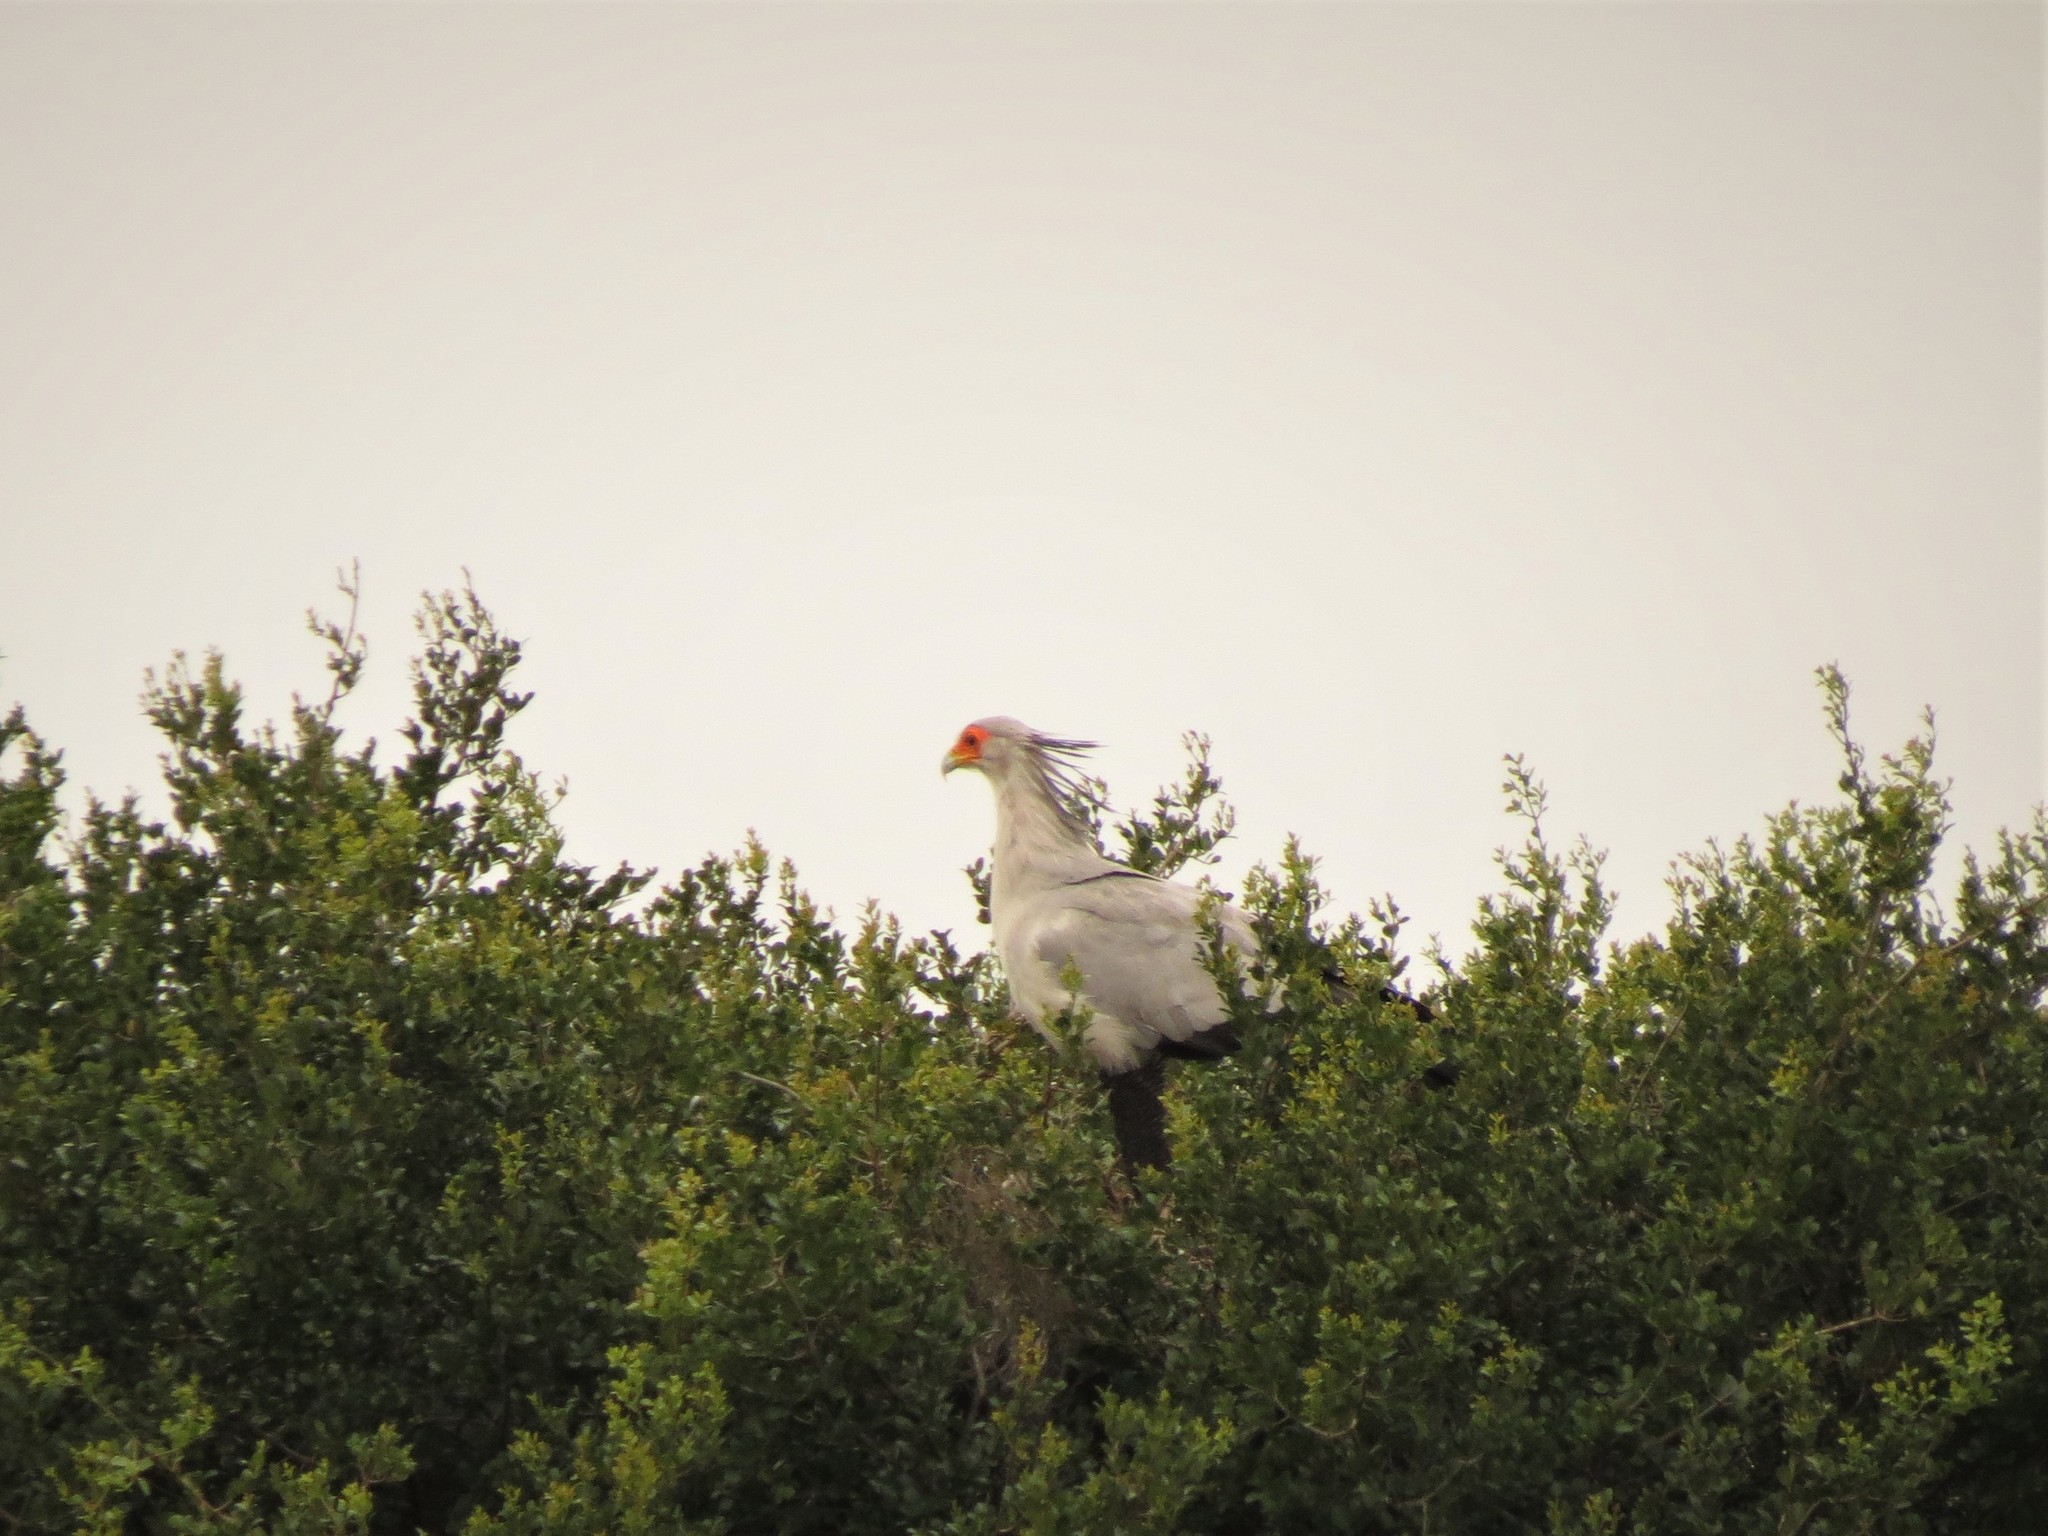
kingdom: Animalia
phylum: Chordata
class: Aves
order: Accipitriformes
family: Sagittariidae
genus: Sagittarius
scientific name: Sagittarius serpentarius
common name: Secretarybird
